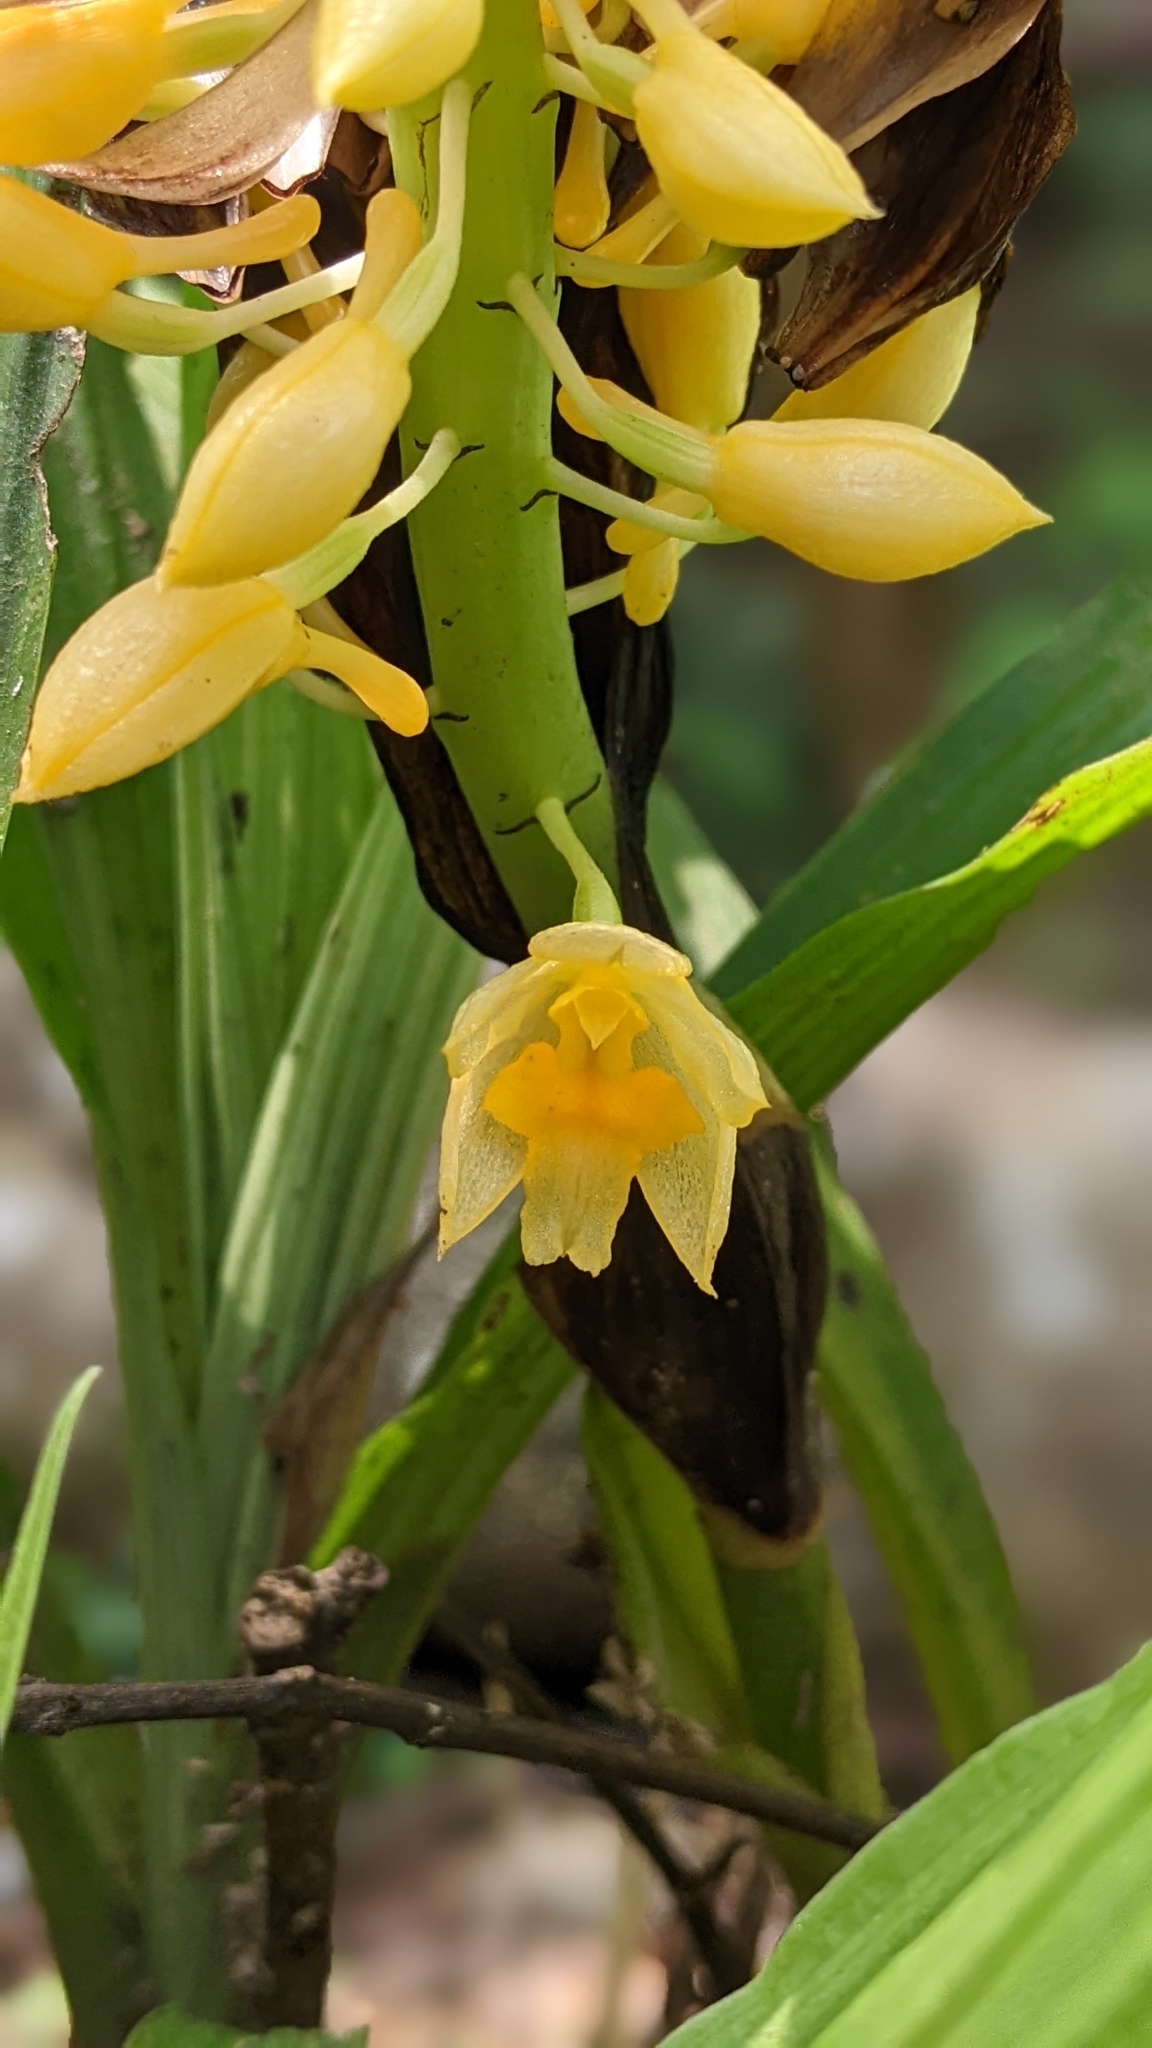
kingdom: Plantae
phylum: Tracheophyta
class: Liliopsida
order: Asparagales
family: Orchidaceae
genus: Calanthe
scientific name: Calanthe formosana
